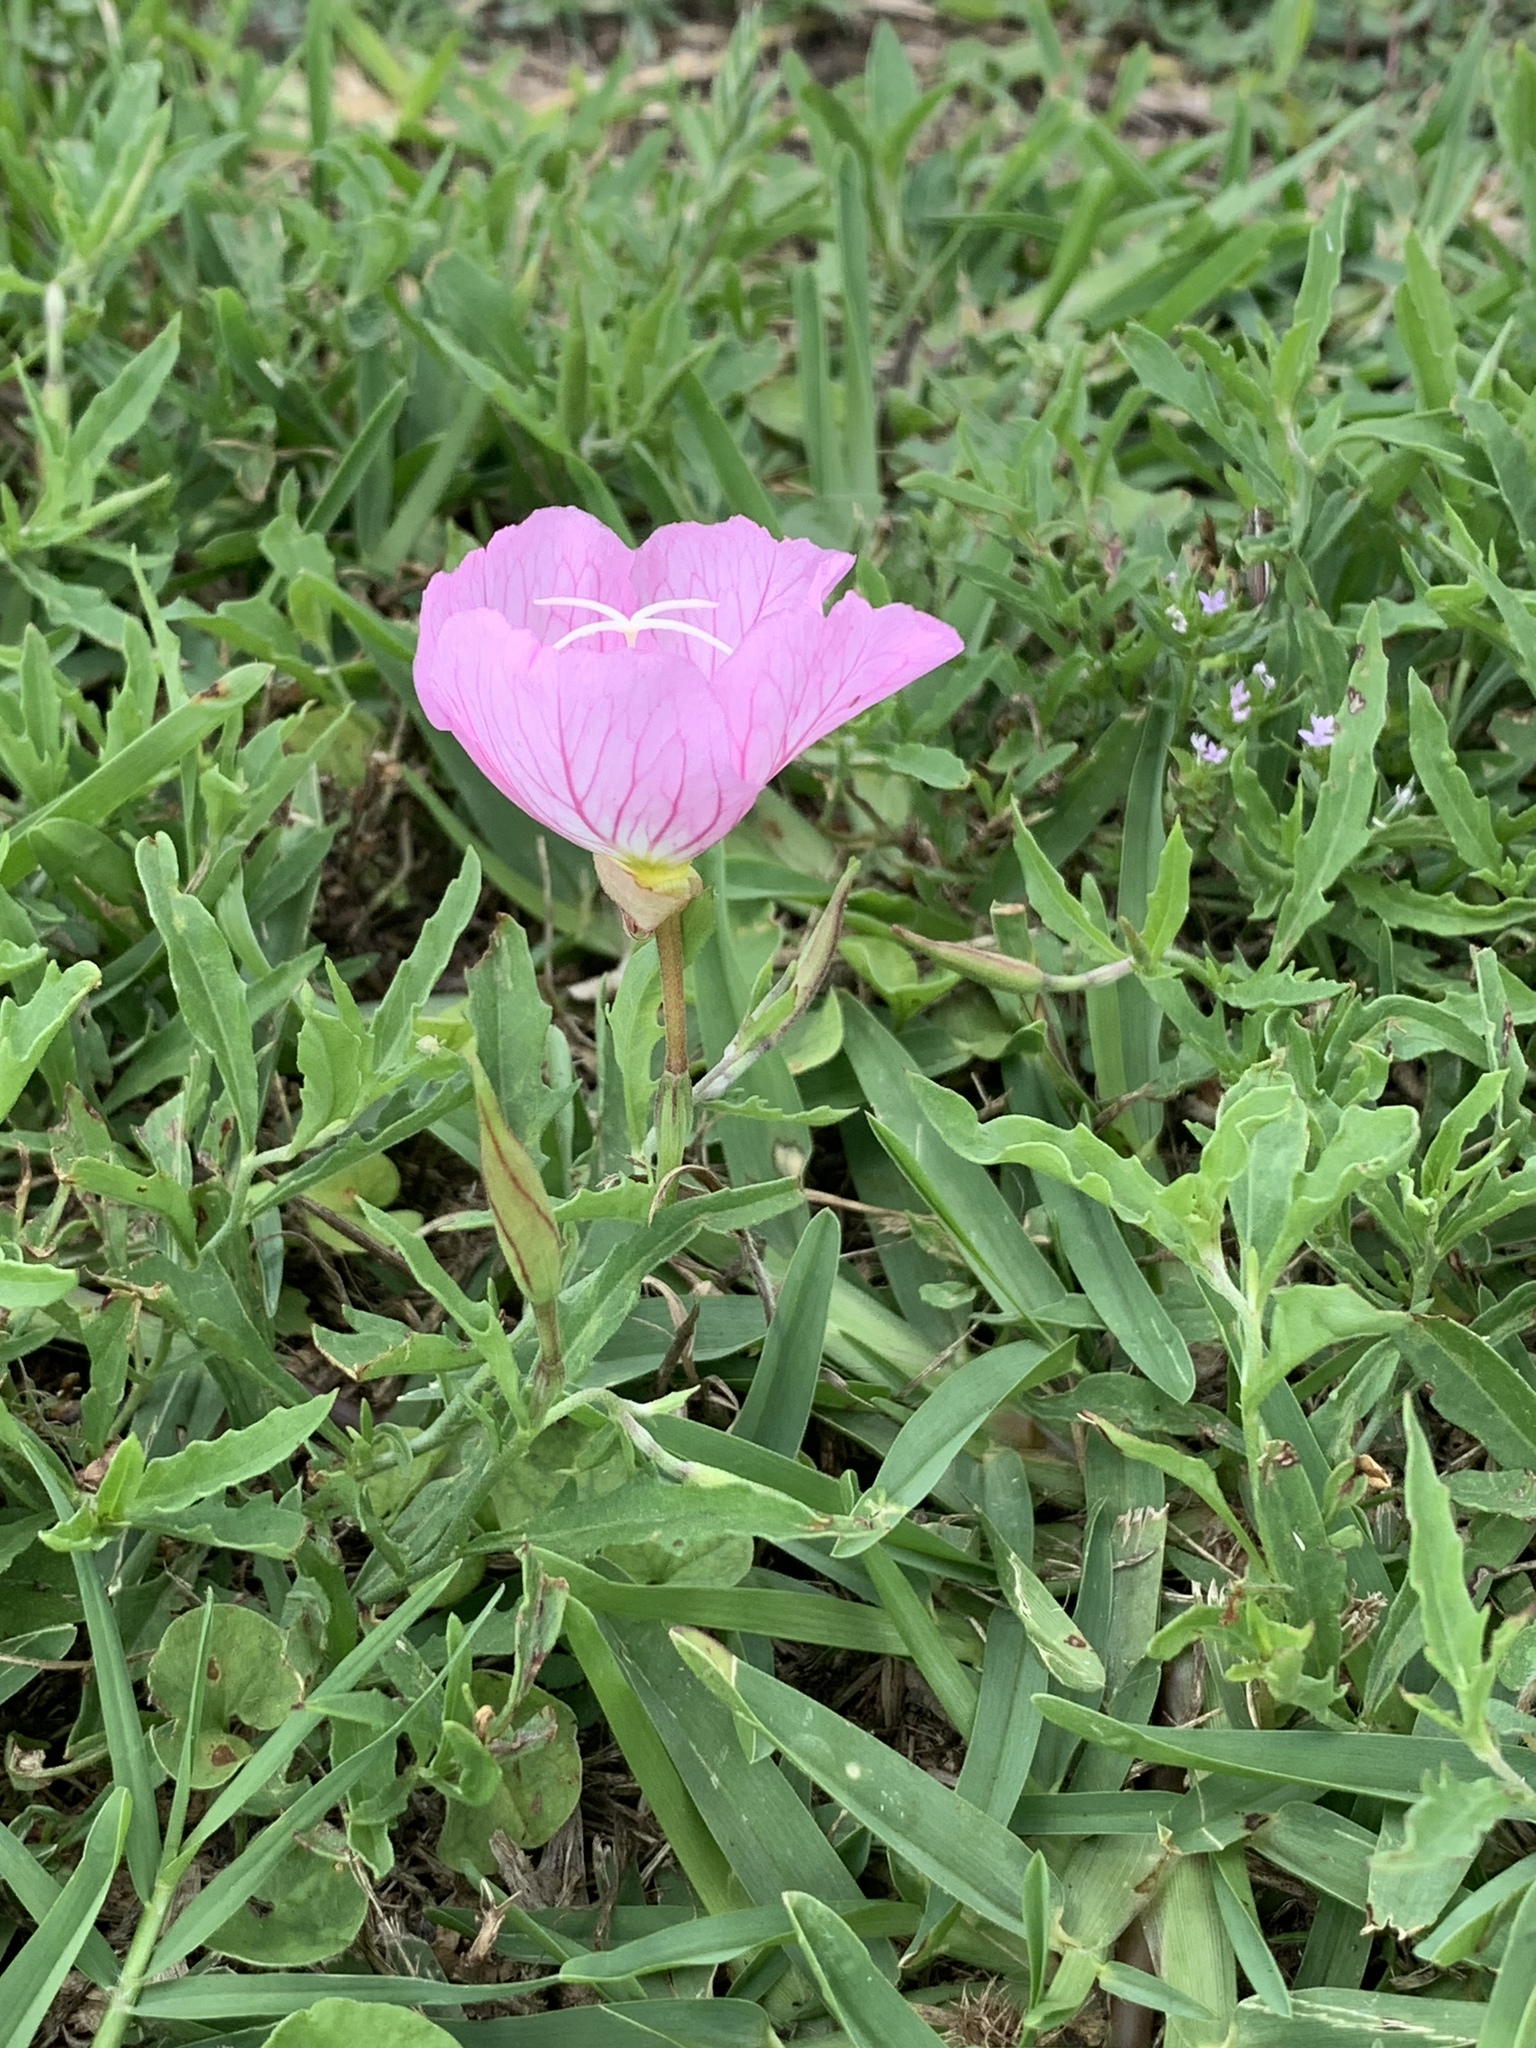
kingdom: Plantae
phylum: Tracheophyta
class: Magnoliopsida
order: Myrtales
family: Onagraceae
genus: Oenothera
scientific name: Oenothera speciosa
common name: White evening-primrose
